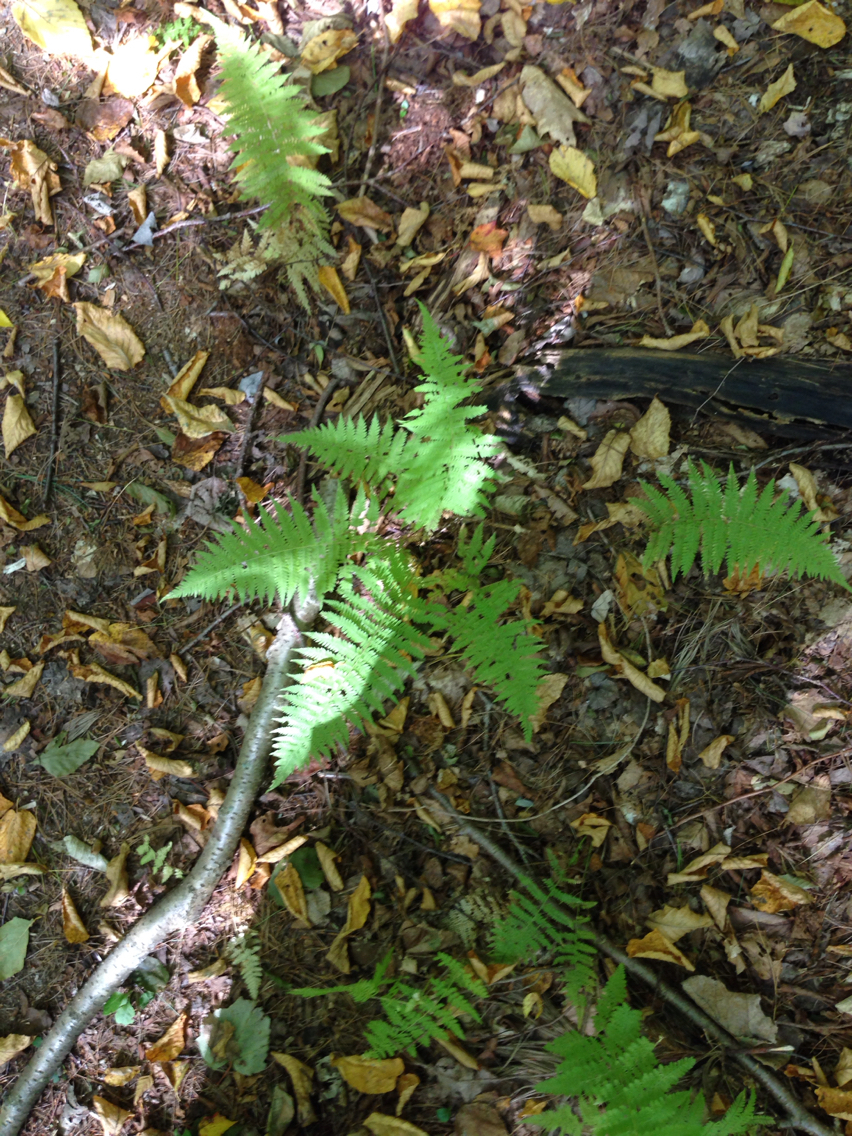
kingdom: Plantae
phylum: Tracheophyta
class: Polypodiopsida
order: Polypodiales
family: Thelypteridaceae
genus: Amauropelta
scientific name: Amauropelta noveboracensis
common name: New york fern
